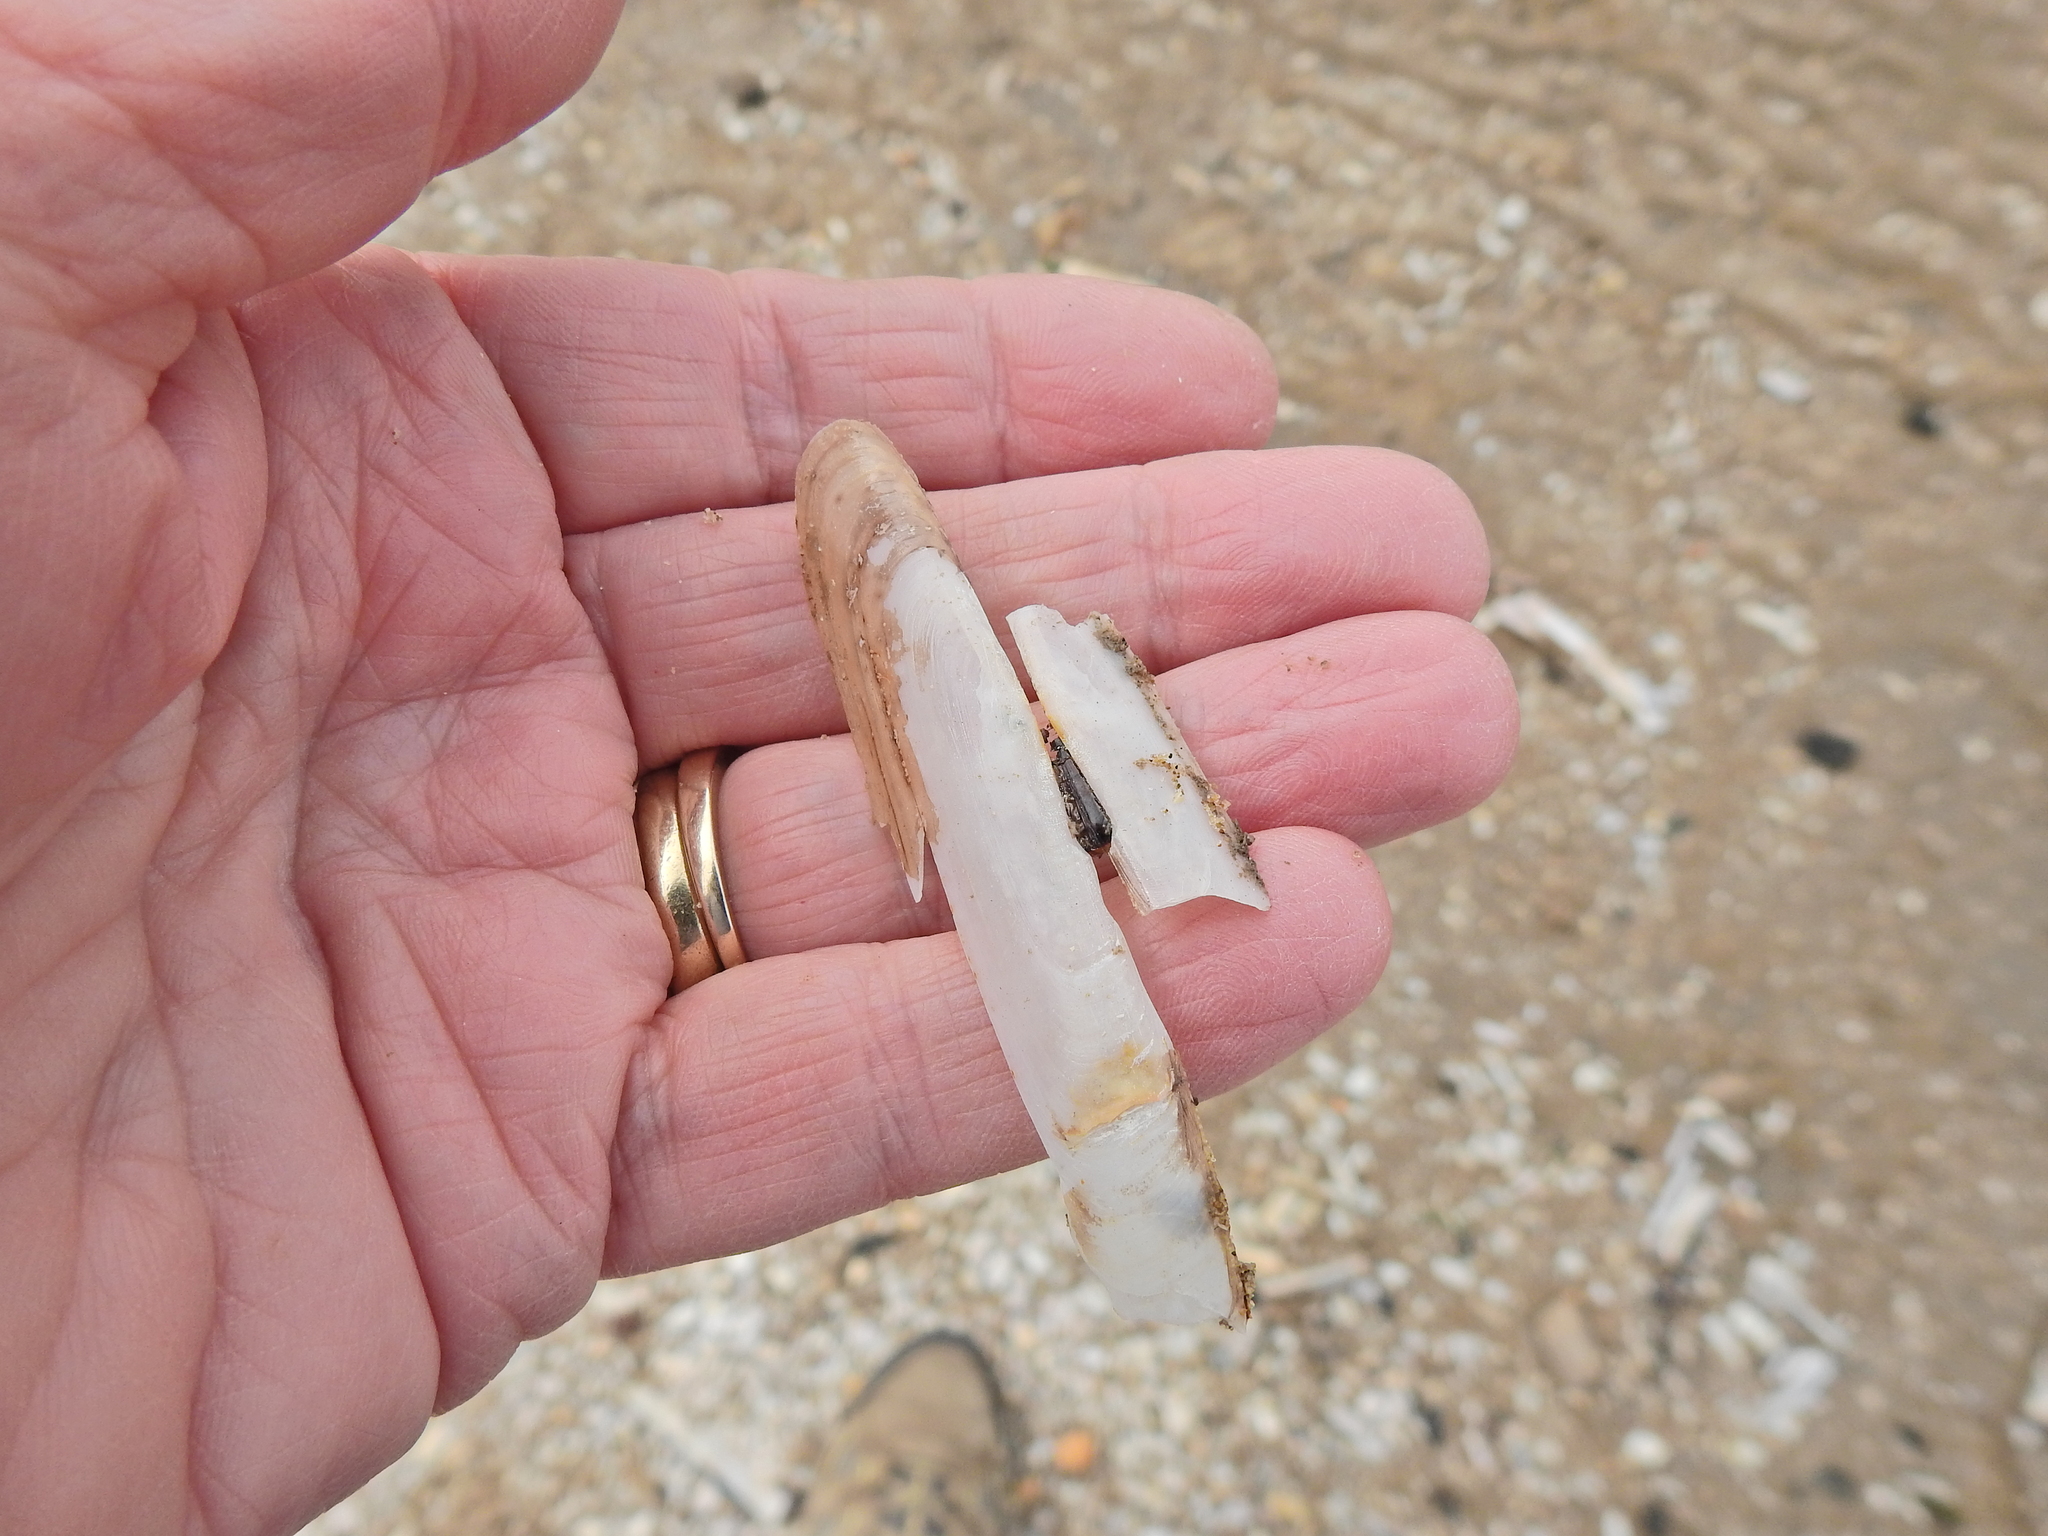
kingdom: Animalia
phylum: Mollusca
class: Bivalvia
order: Adapedonta
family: Pharidae
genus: Pharus
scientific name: Pharus legumen
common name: Bean razor clam
